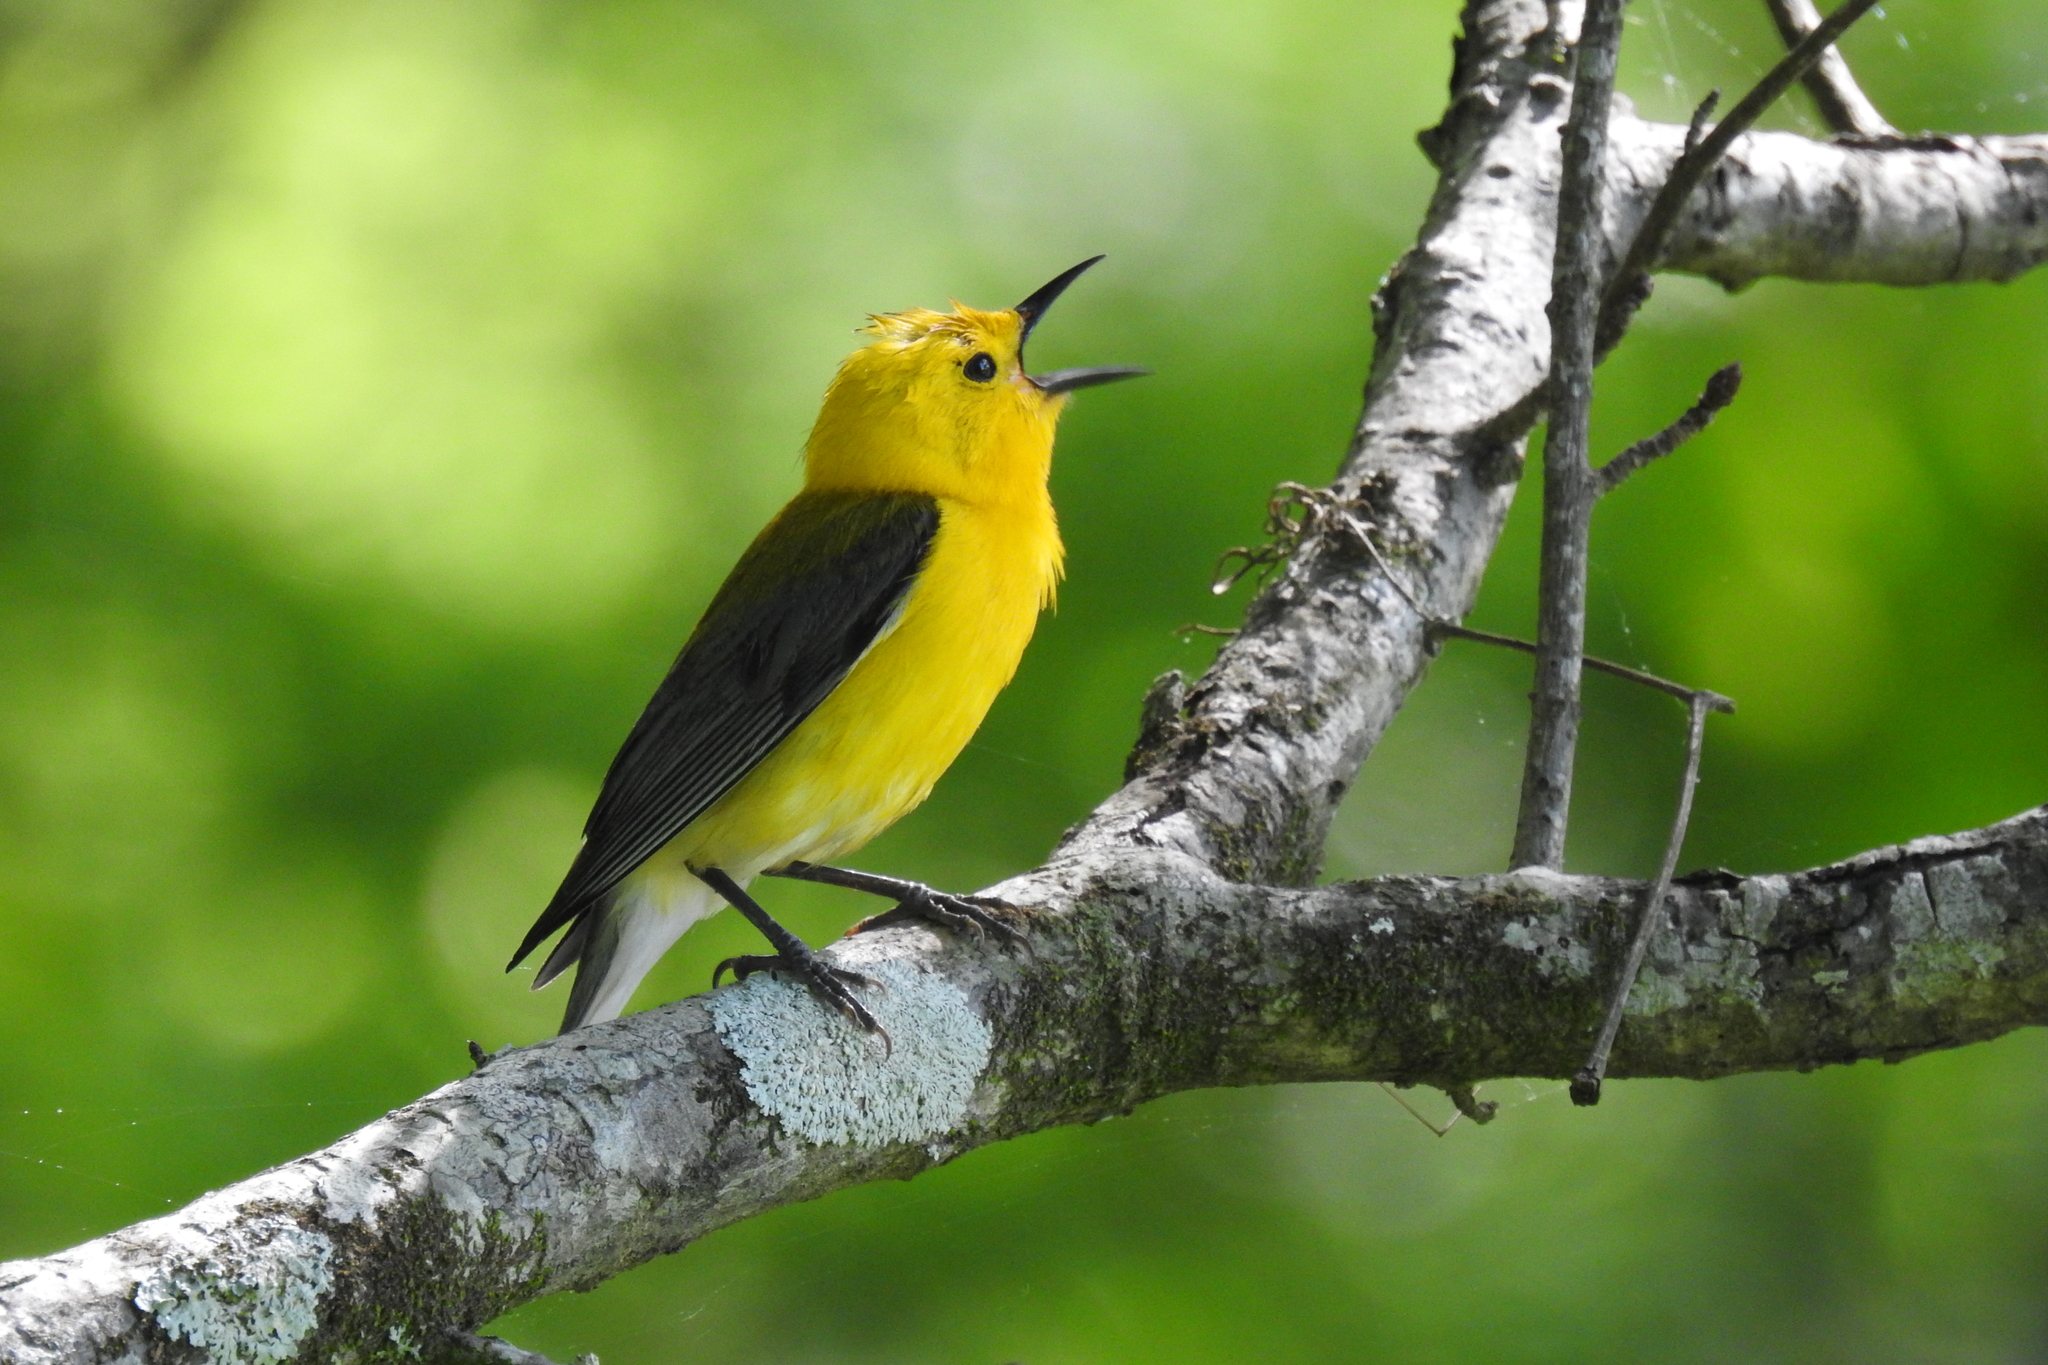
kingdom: Animalia
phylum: Chordata
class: Aves
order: Passeriformes
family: Parulidae
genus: Protonotaria
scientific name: Protonotaria citrea
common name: Prothonotary warbler
